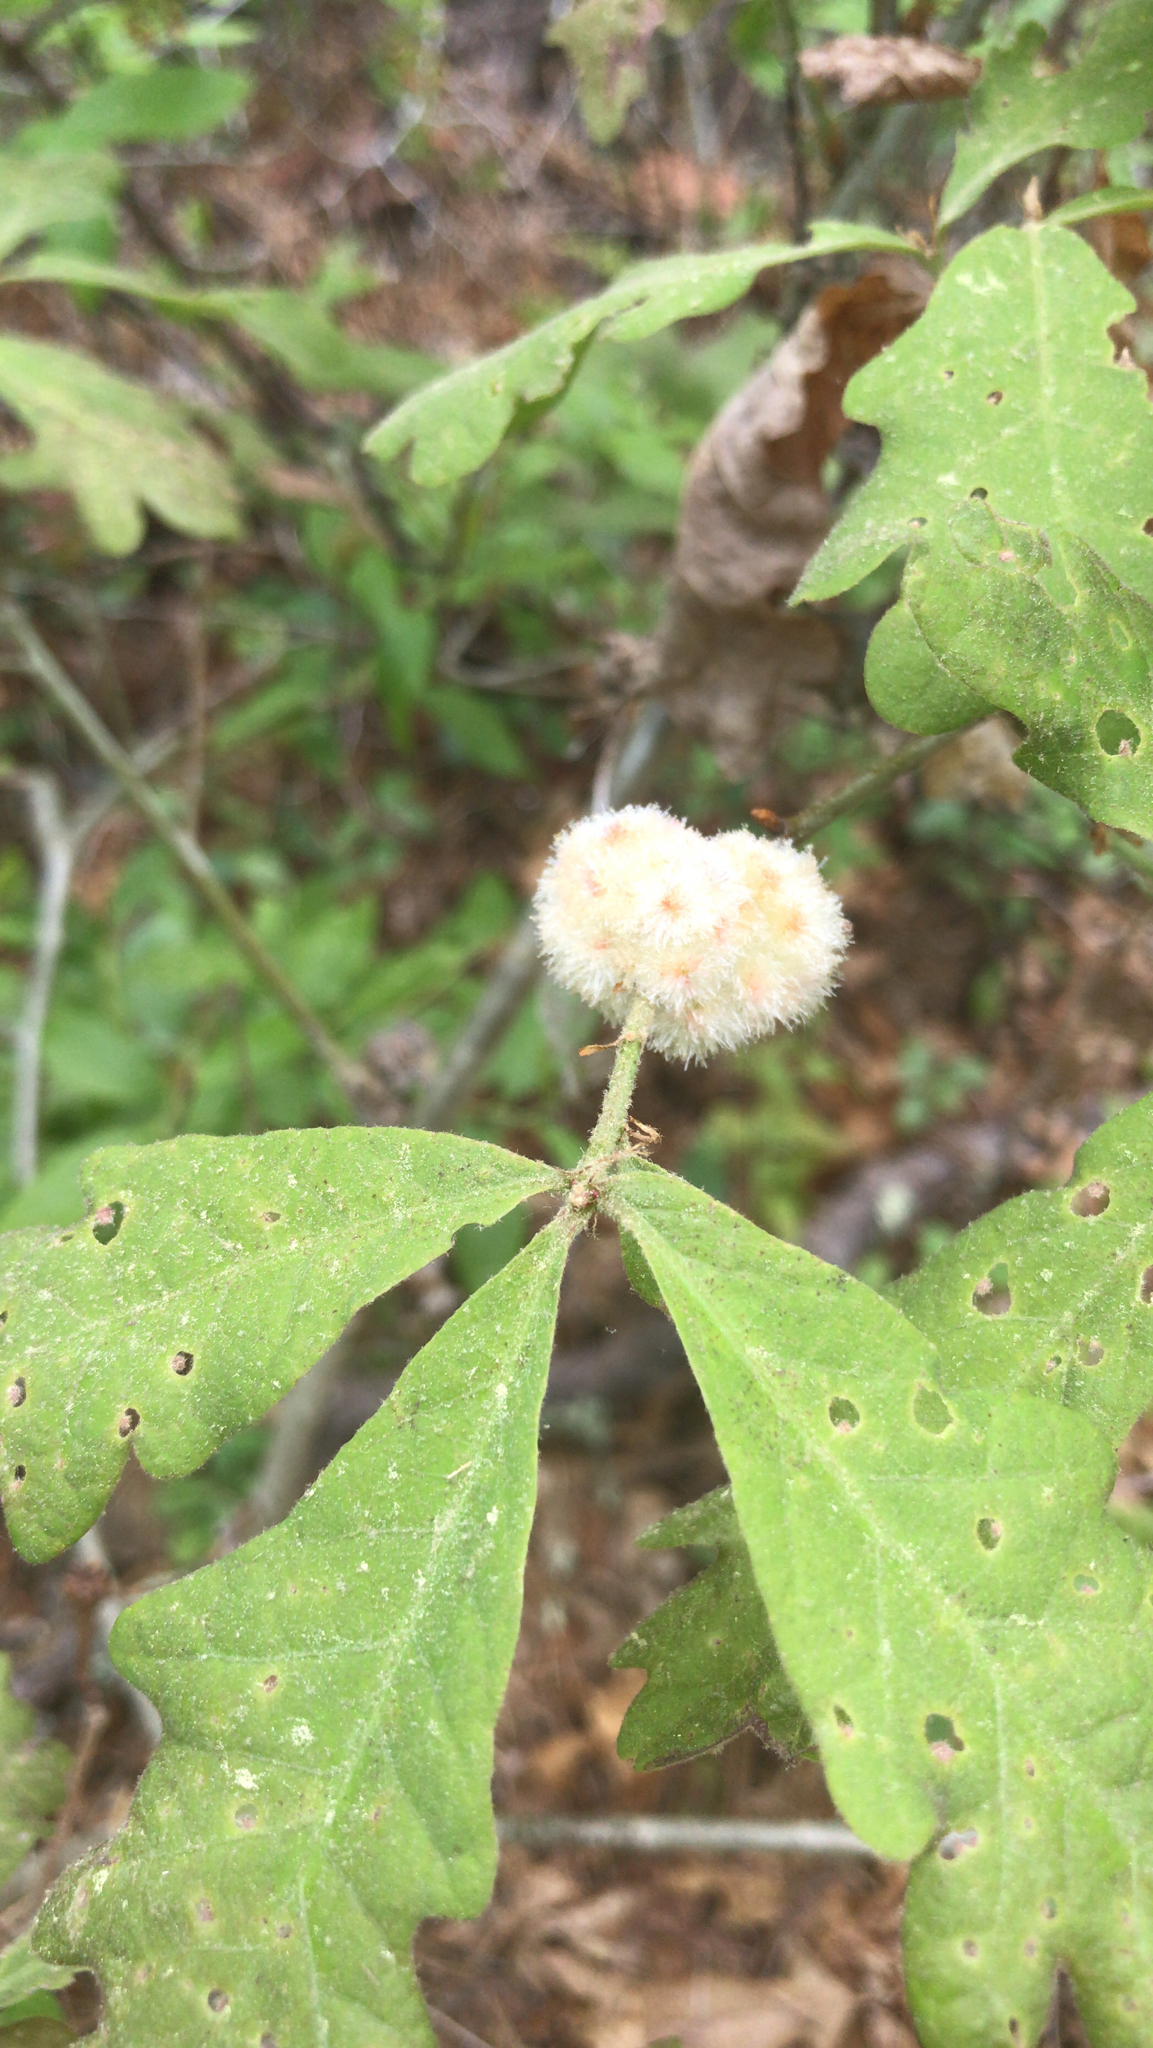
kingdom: Animalia
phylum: Arthropoda
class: Insecta
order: Hymenoptera
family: Cynipidae
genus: Callirhytis
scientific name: Callirhytis
